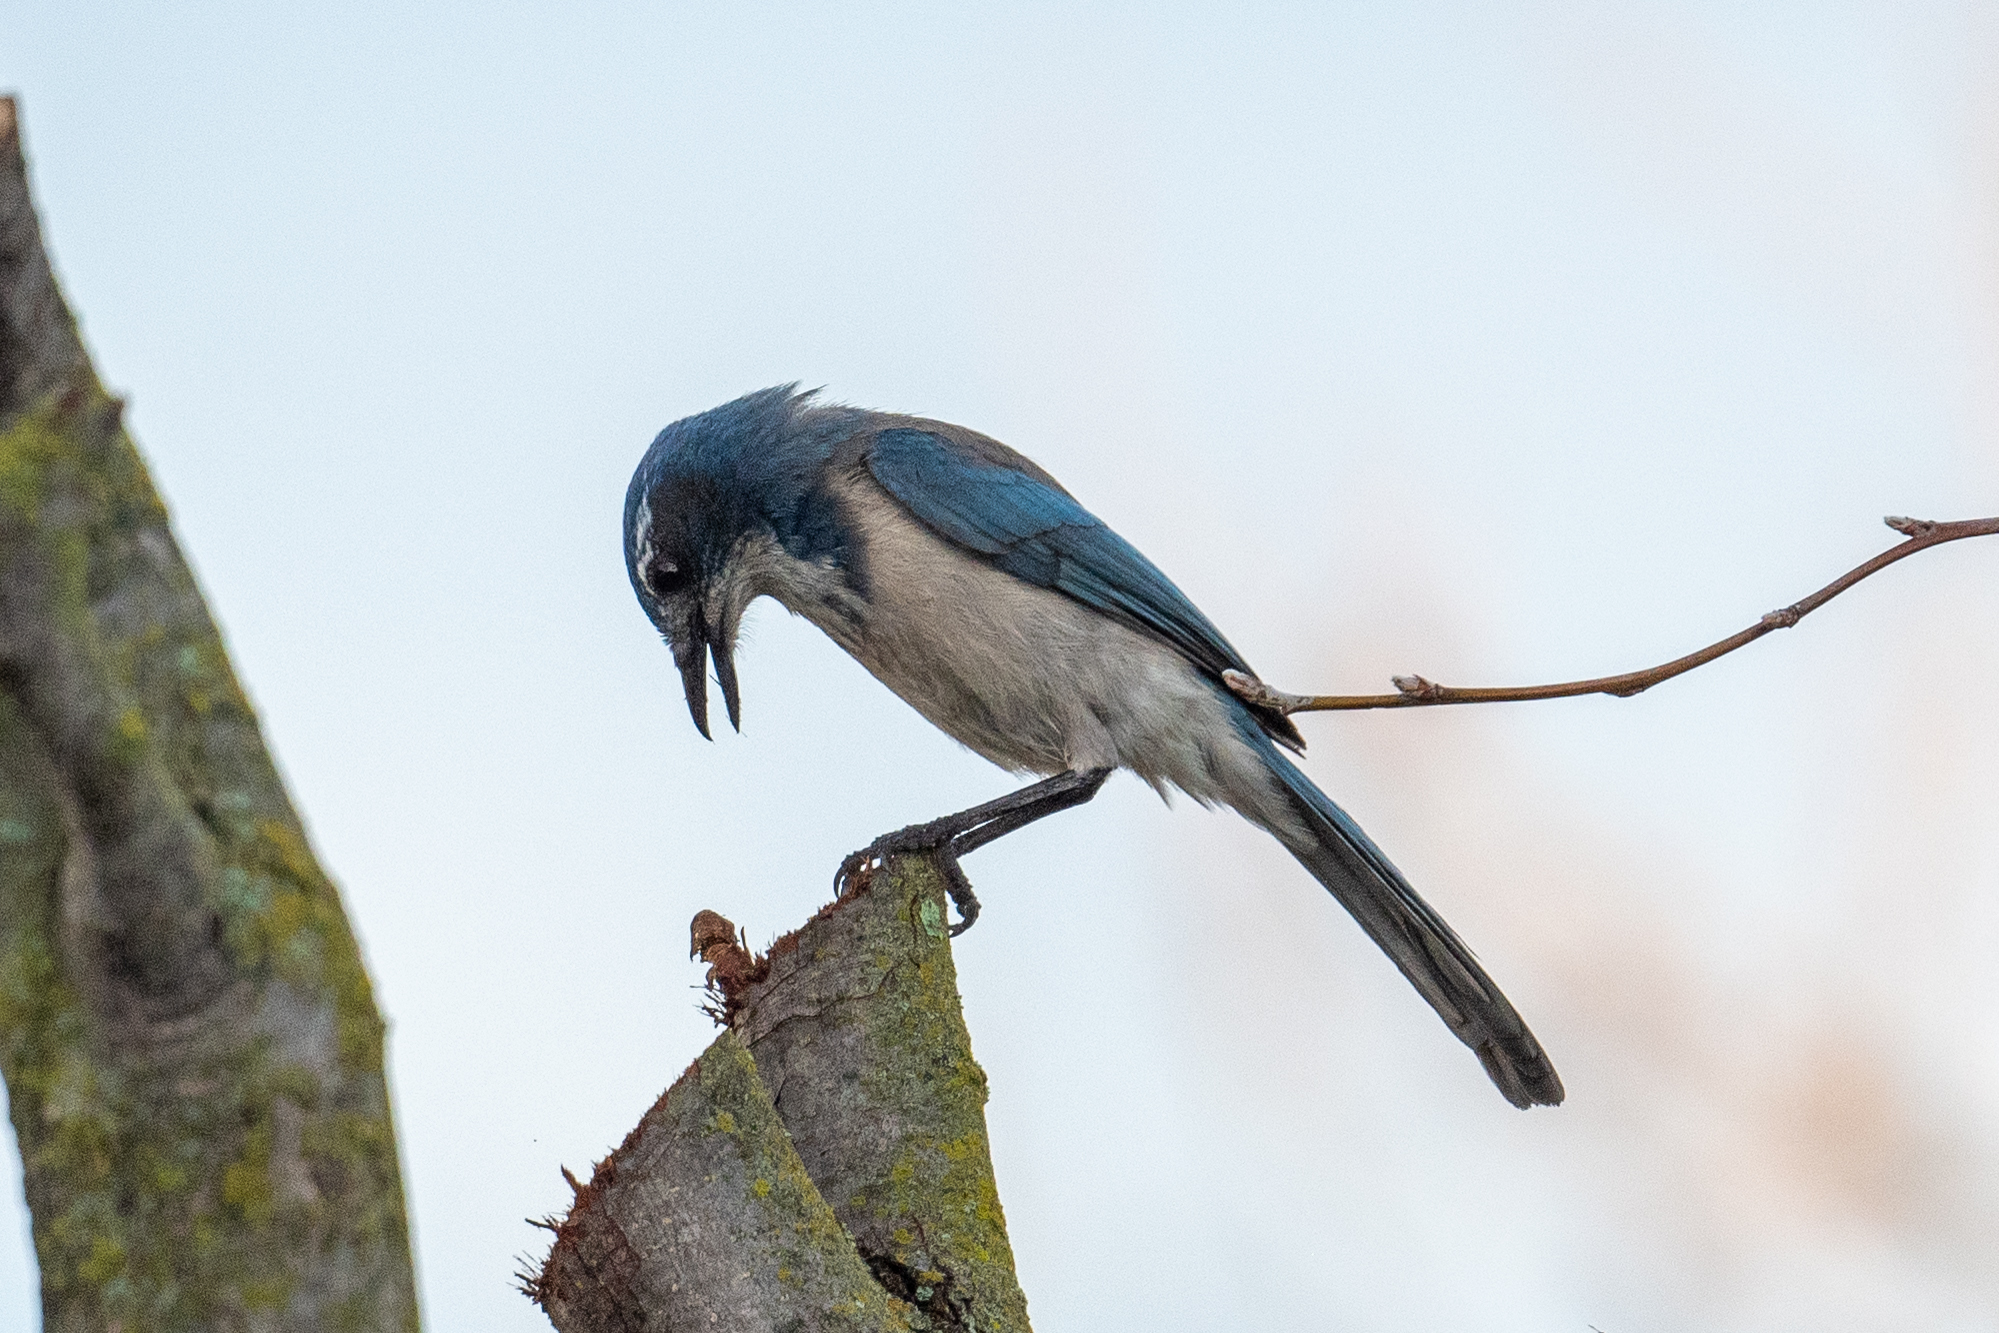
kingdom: Animalia
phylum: Chordata
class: Aves
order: Passeriformes
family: Corvidae
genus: Aphelocoma
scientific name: Aphelocoma californica
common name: California scrub-jay
